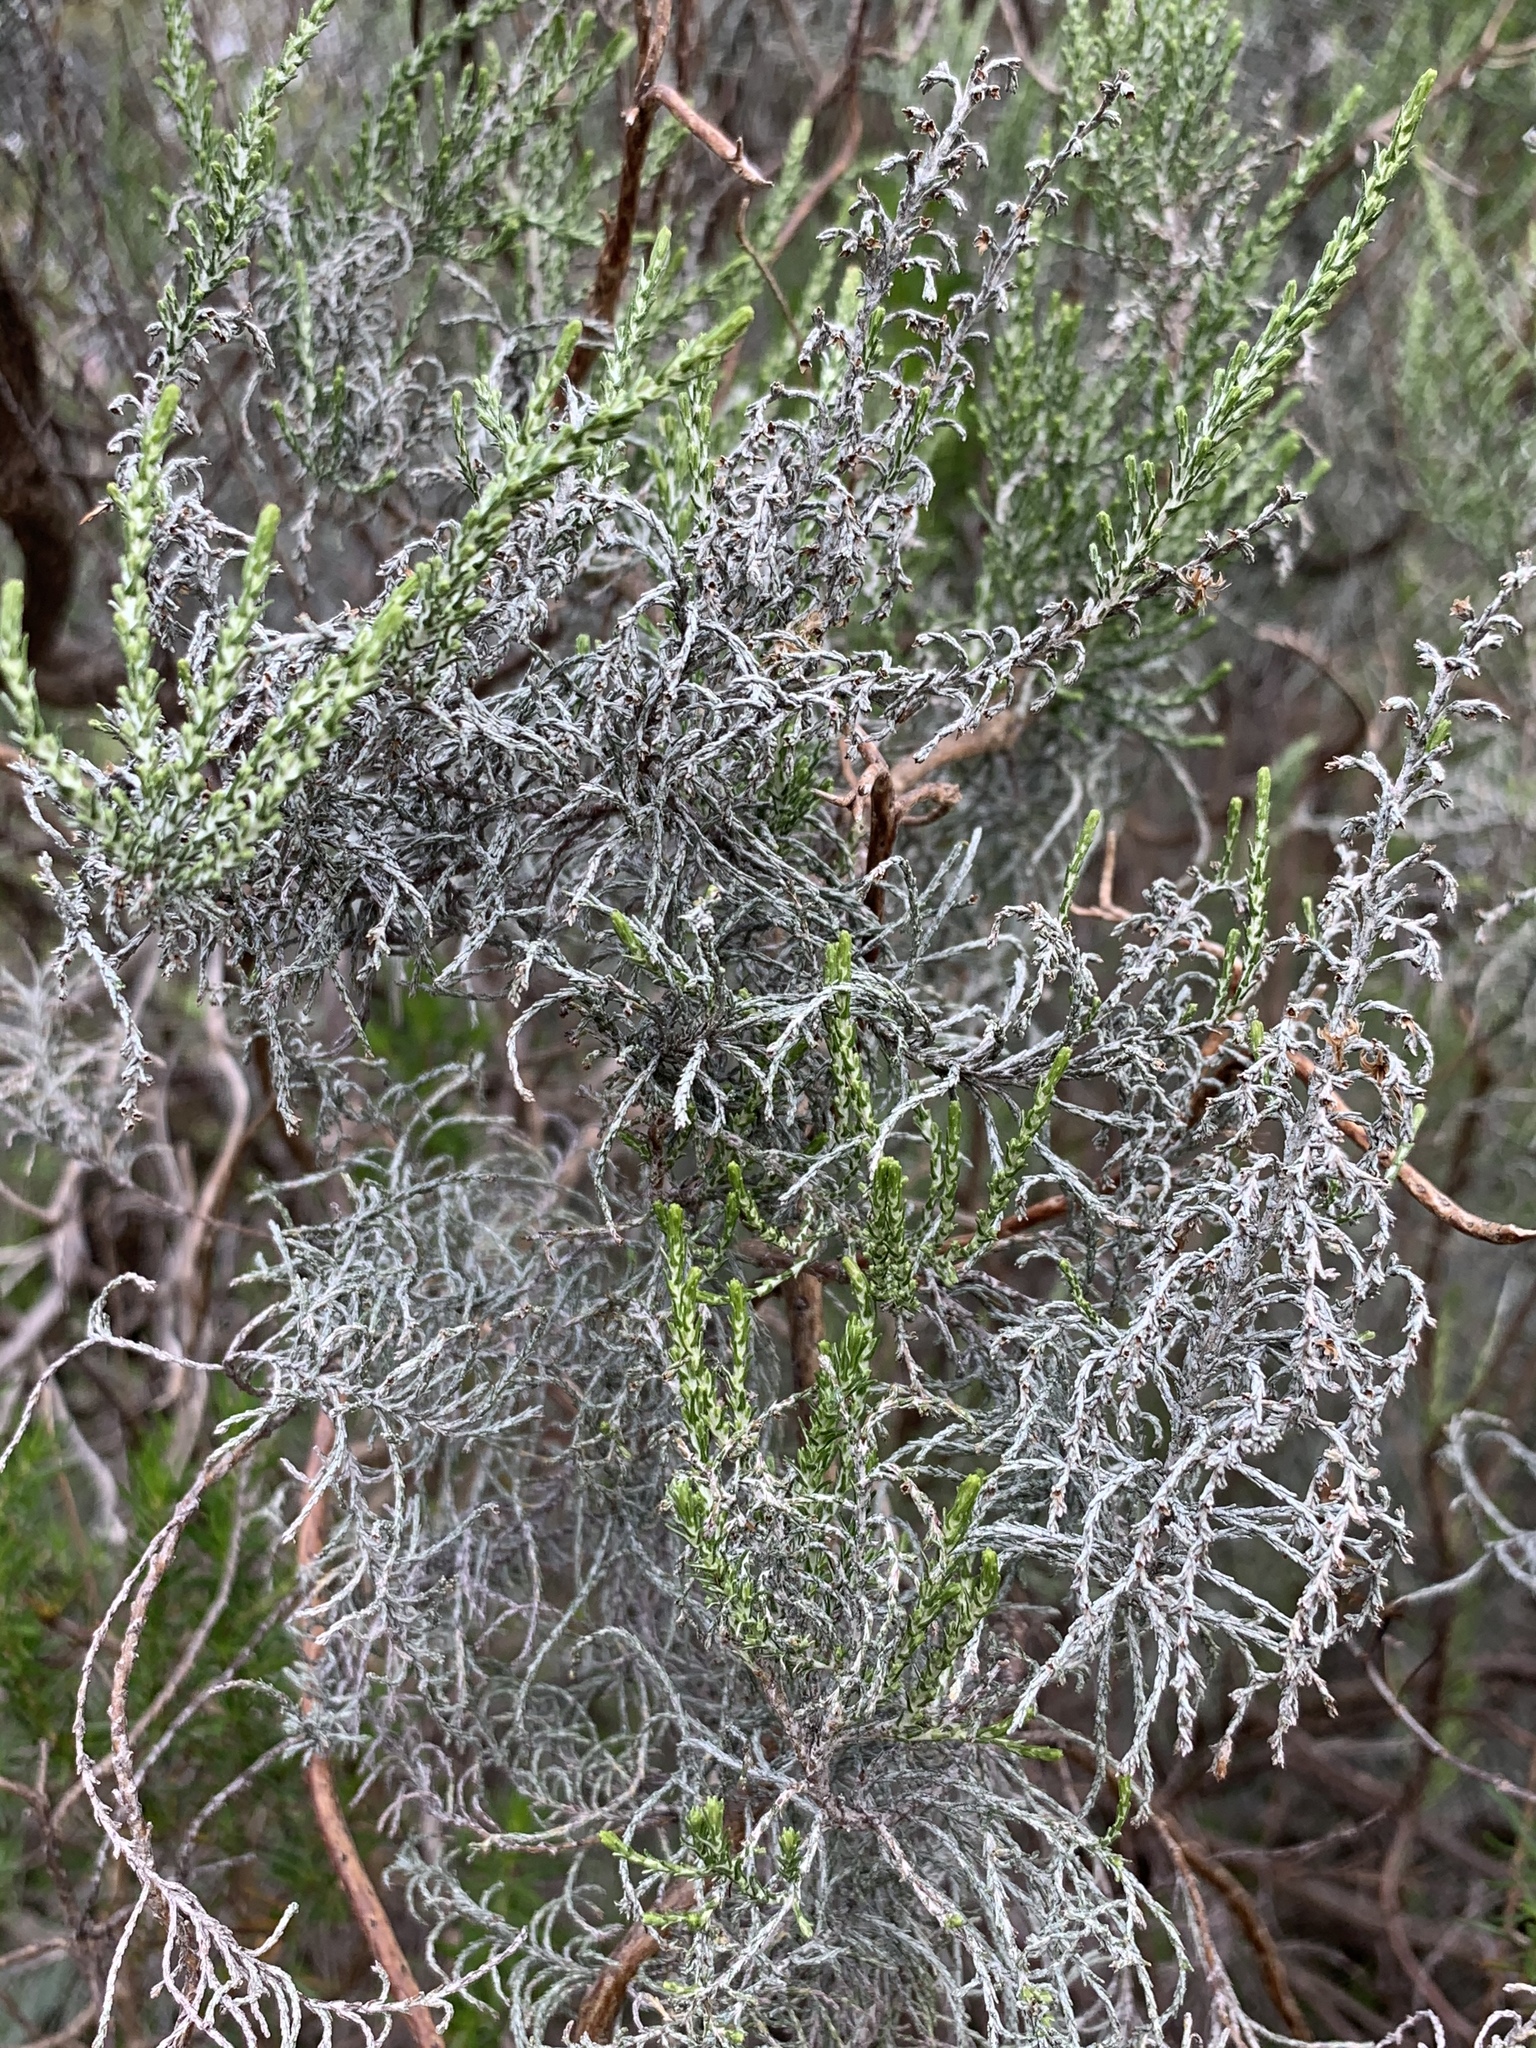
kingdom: Plantae
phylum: Tracheophyta
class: Magnoliopsida
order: Asterales
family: Asteraceae
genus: Dicerothamnus
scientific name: Dicerothamnus rhinocerotis
